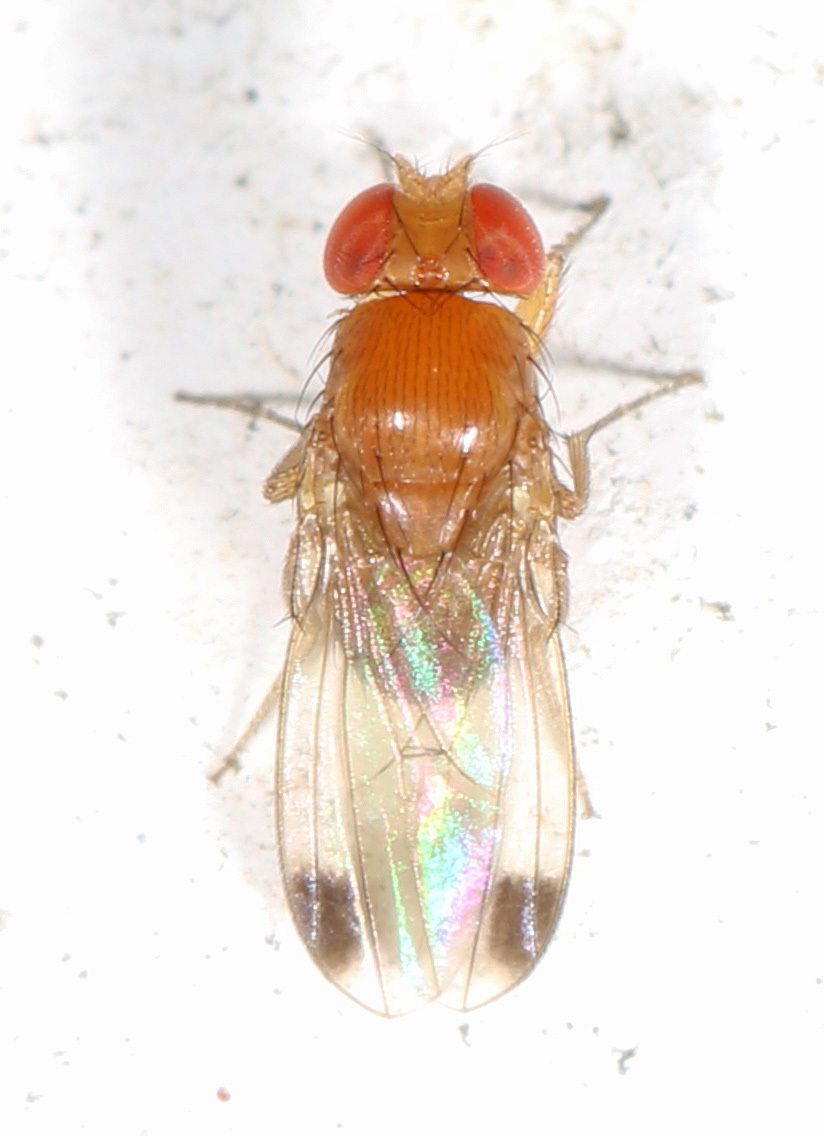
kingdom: Animalia
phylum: Arthropoda
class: Insecta
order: Diptera
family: Drosophilidae
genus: Drosophila
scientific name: Drosophila suzukii
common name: Spotted-wing drosophila
